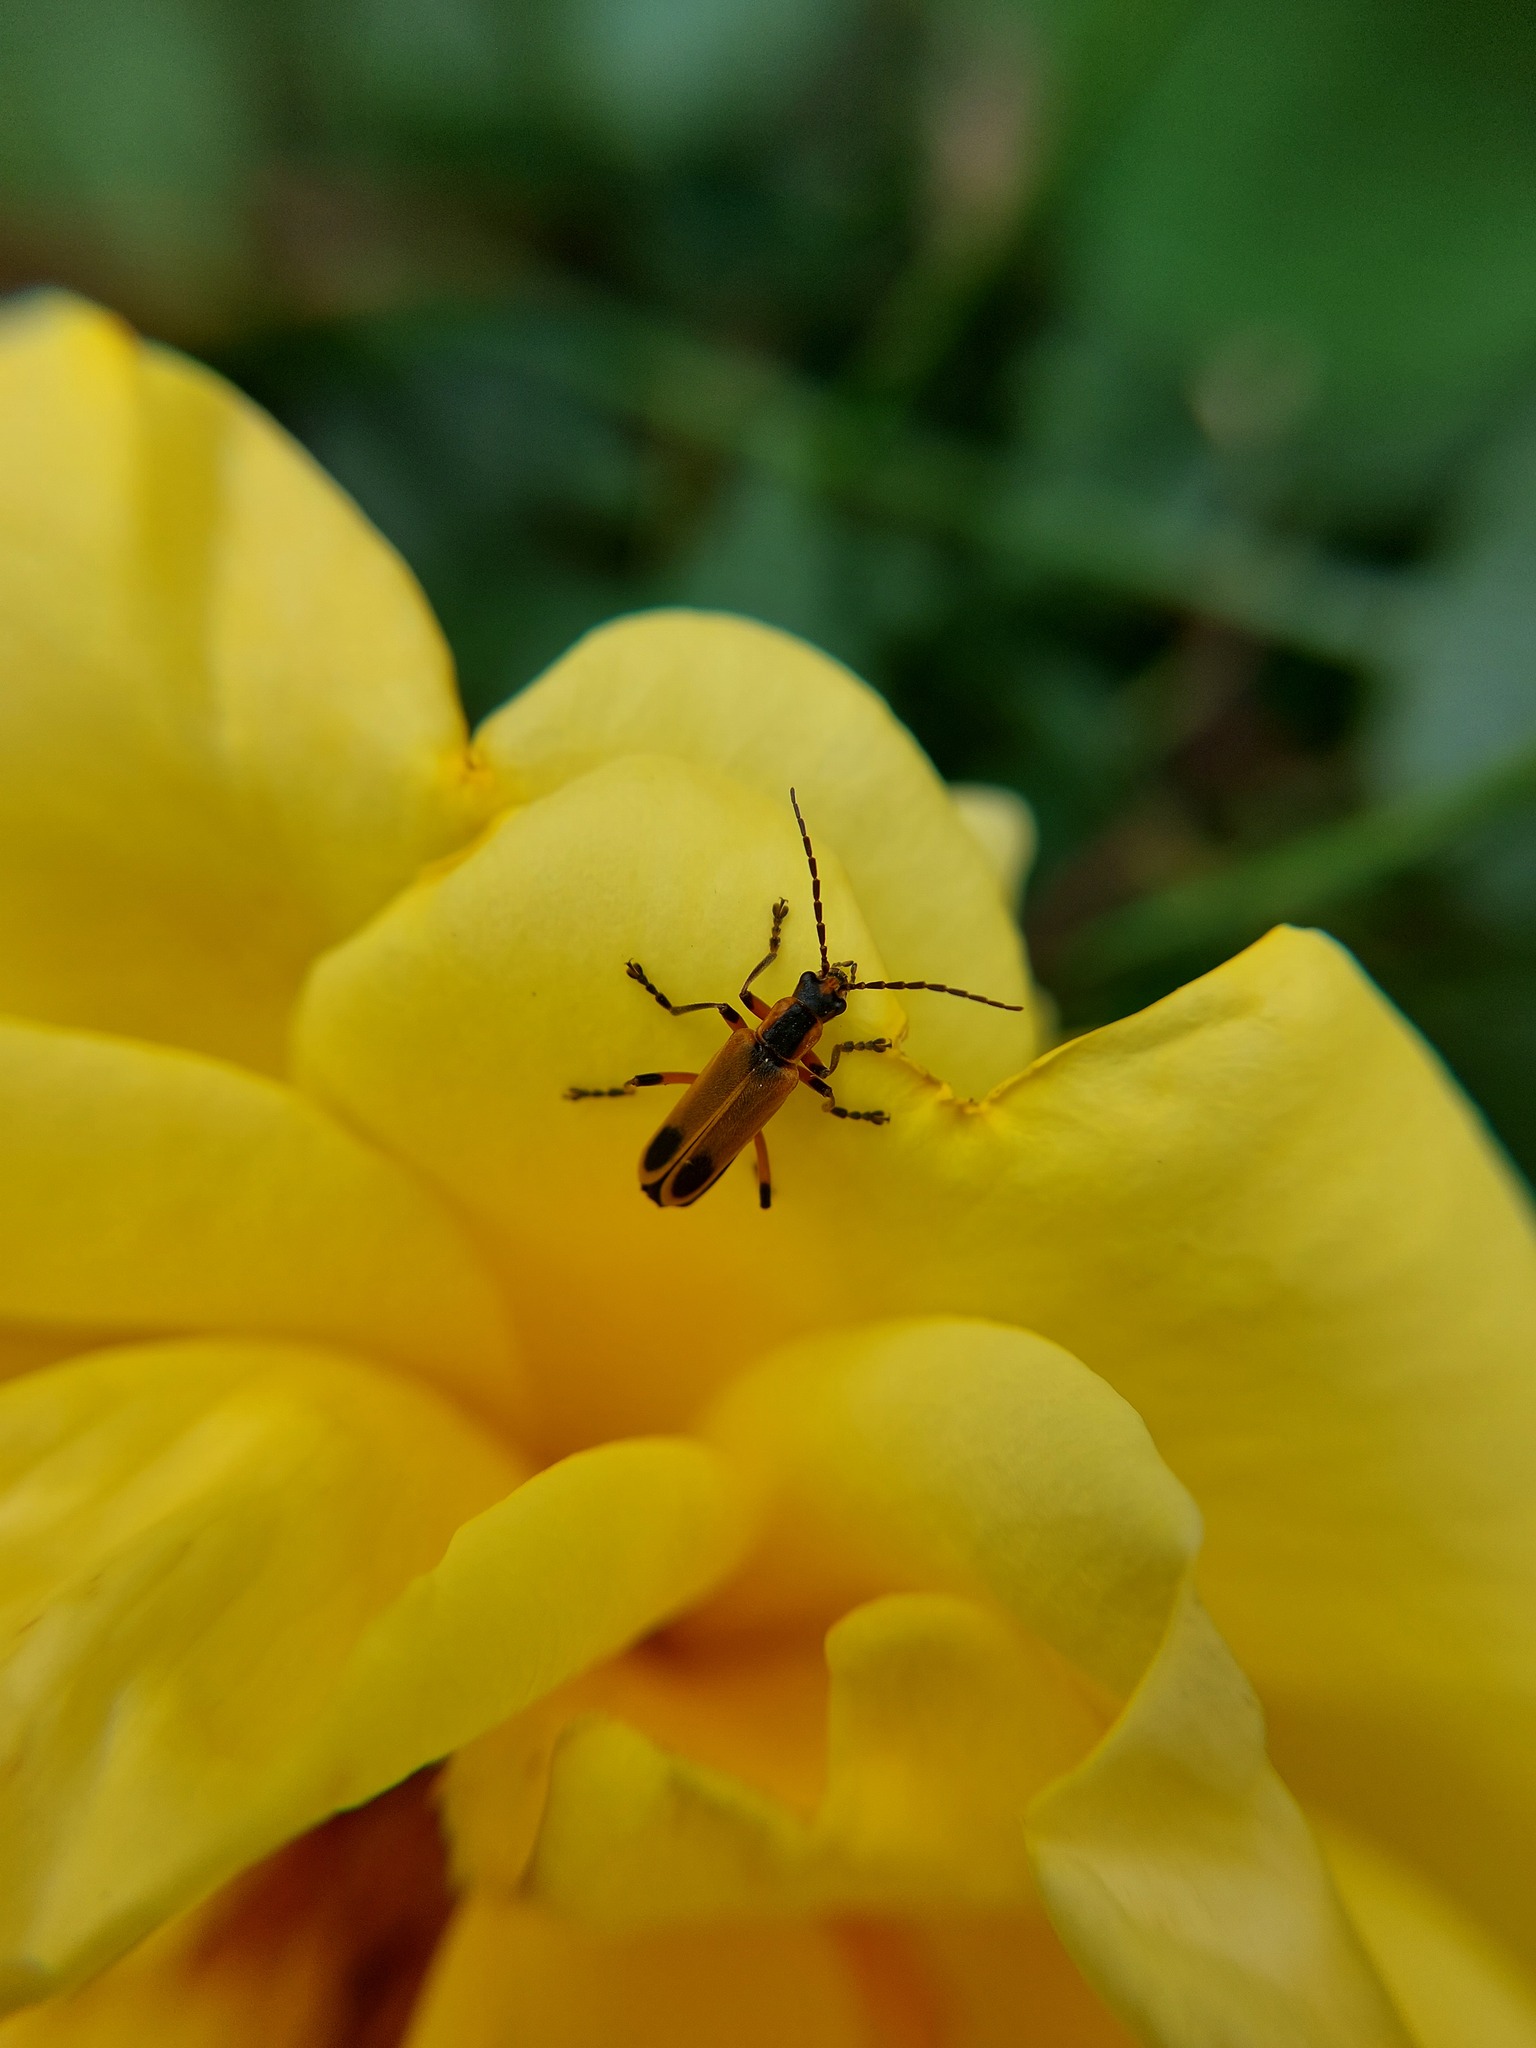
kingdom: Animalia
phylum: Arthropoda
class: Insecta
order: Coleoptera
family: Cantharidae
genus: Chauliognathus
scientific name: Chauliognathus marginatus
